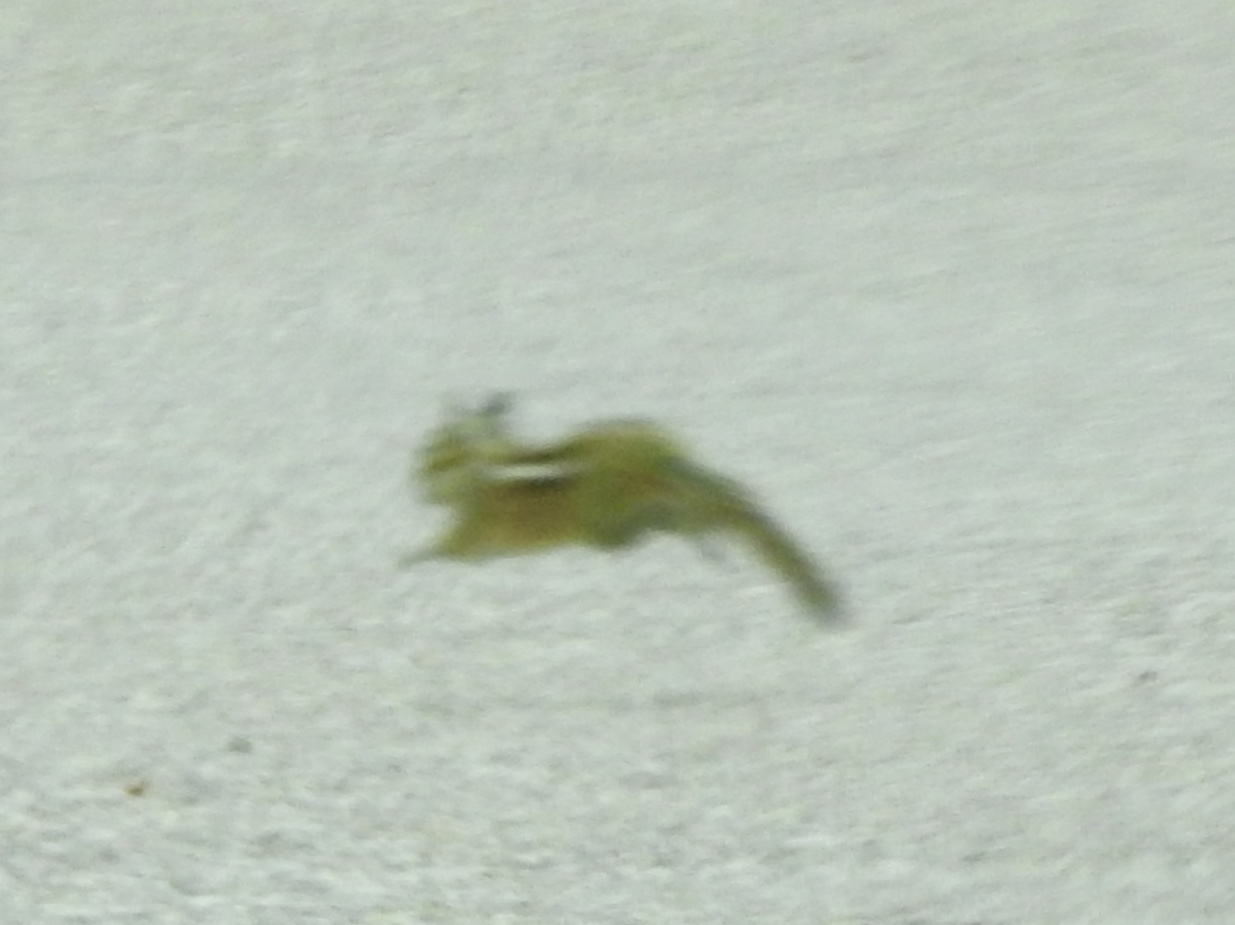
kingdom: Animalia
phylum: Chordata
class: Mammalia
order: Rodentia
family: Sciuridae
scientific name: Sciuridae
